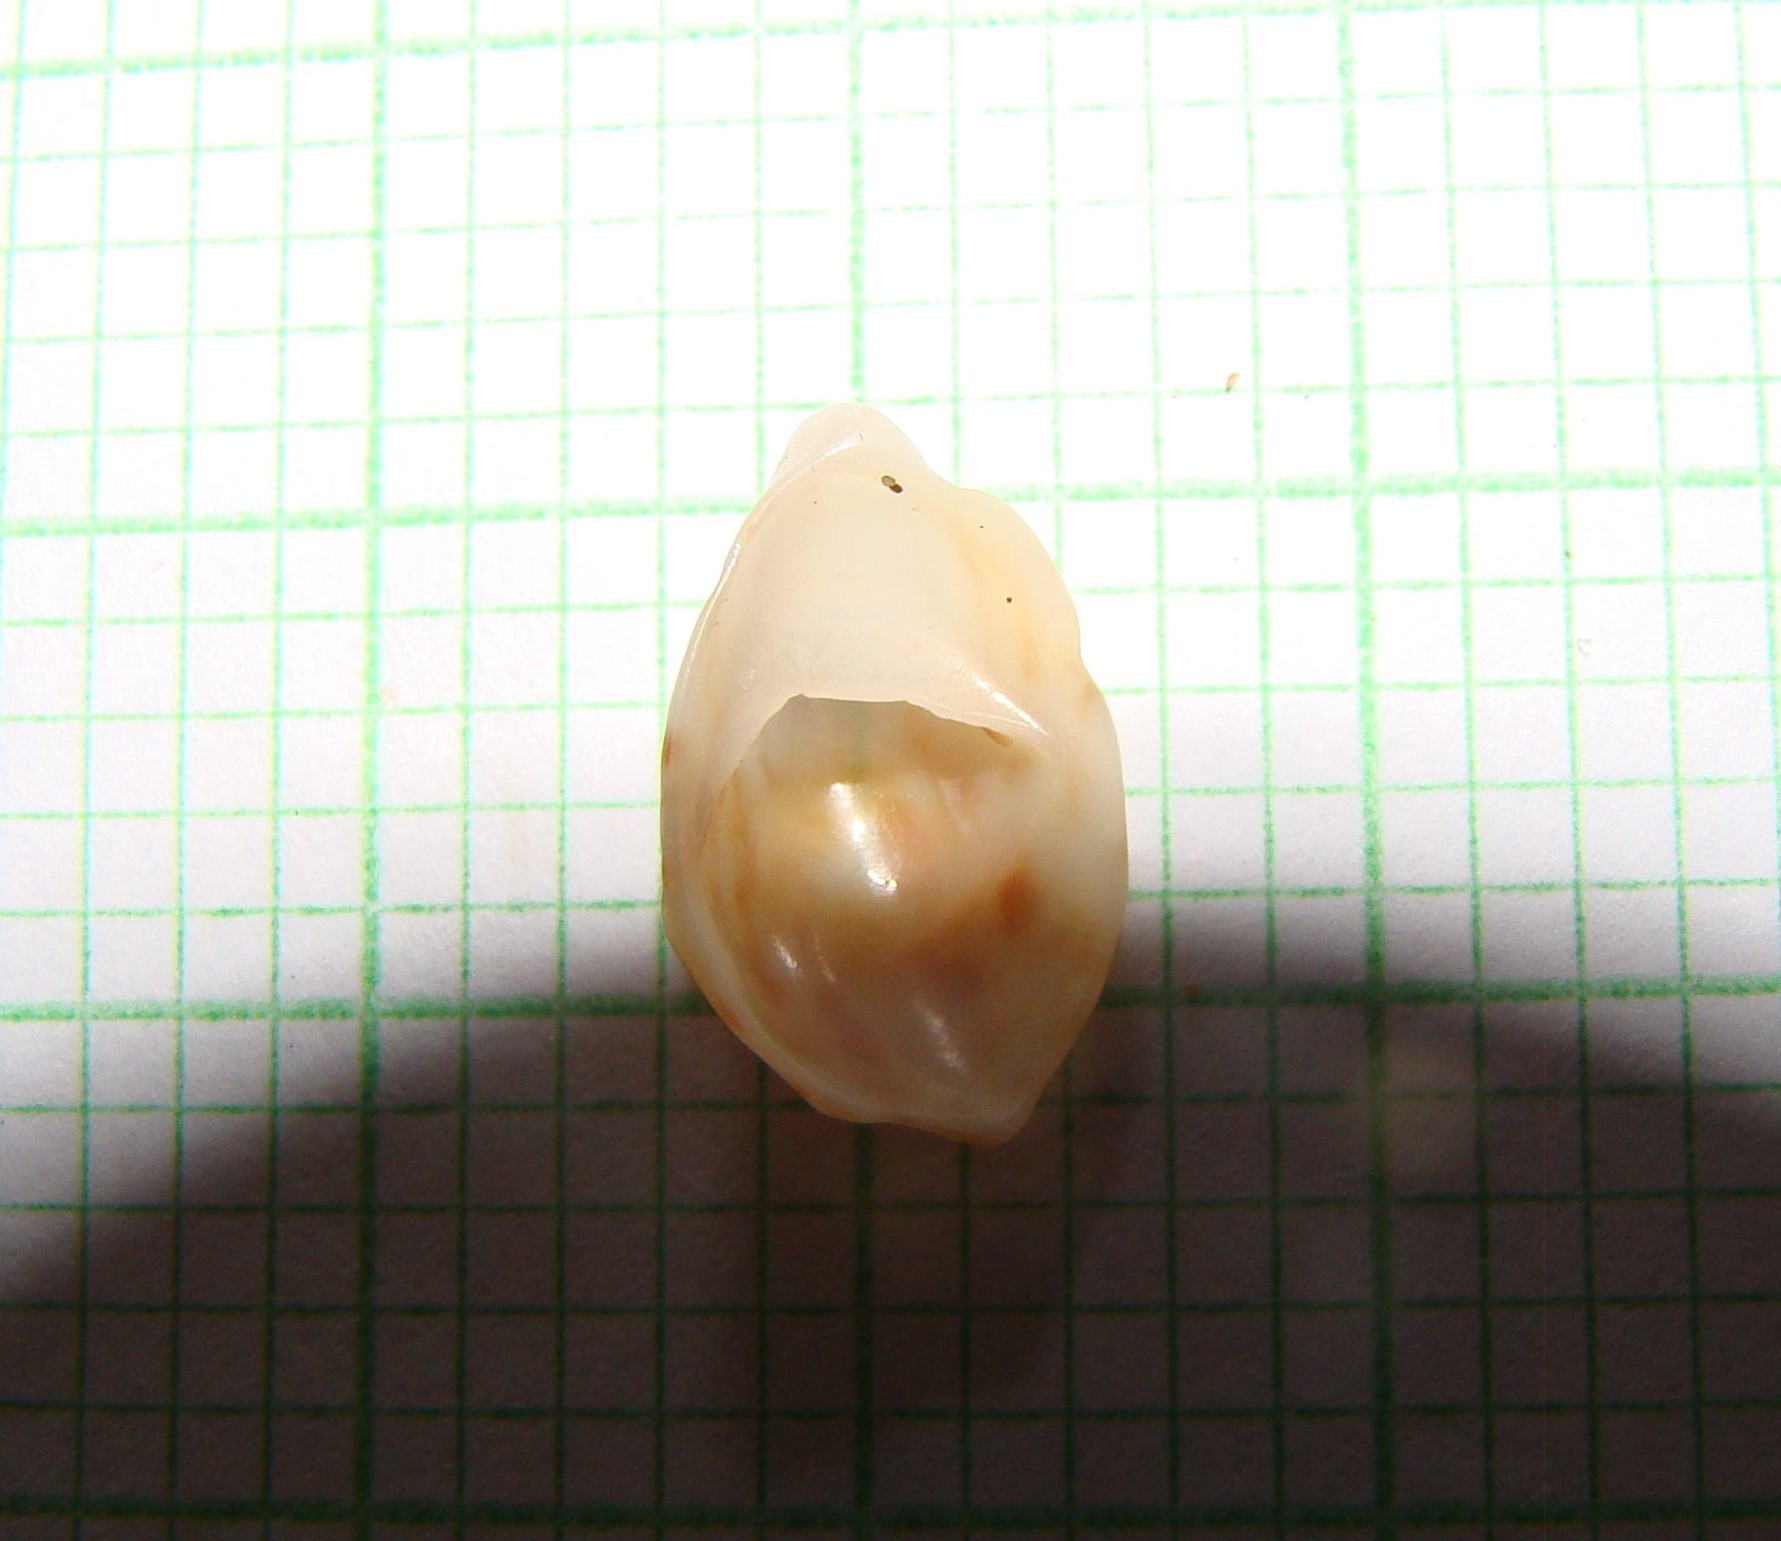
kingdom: Animalia
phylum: Mollusca
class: Gastropoda
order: Littorinimorpha
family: Calyptraeidae
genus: Maoricrypta
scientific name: Maoricrypta costata
